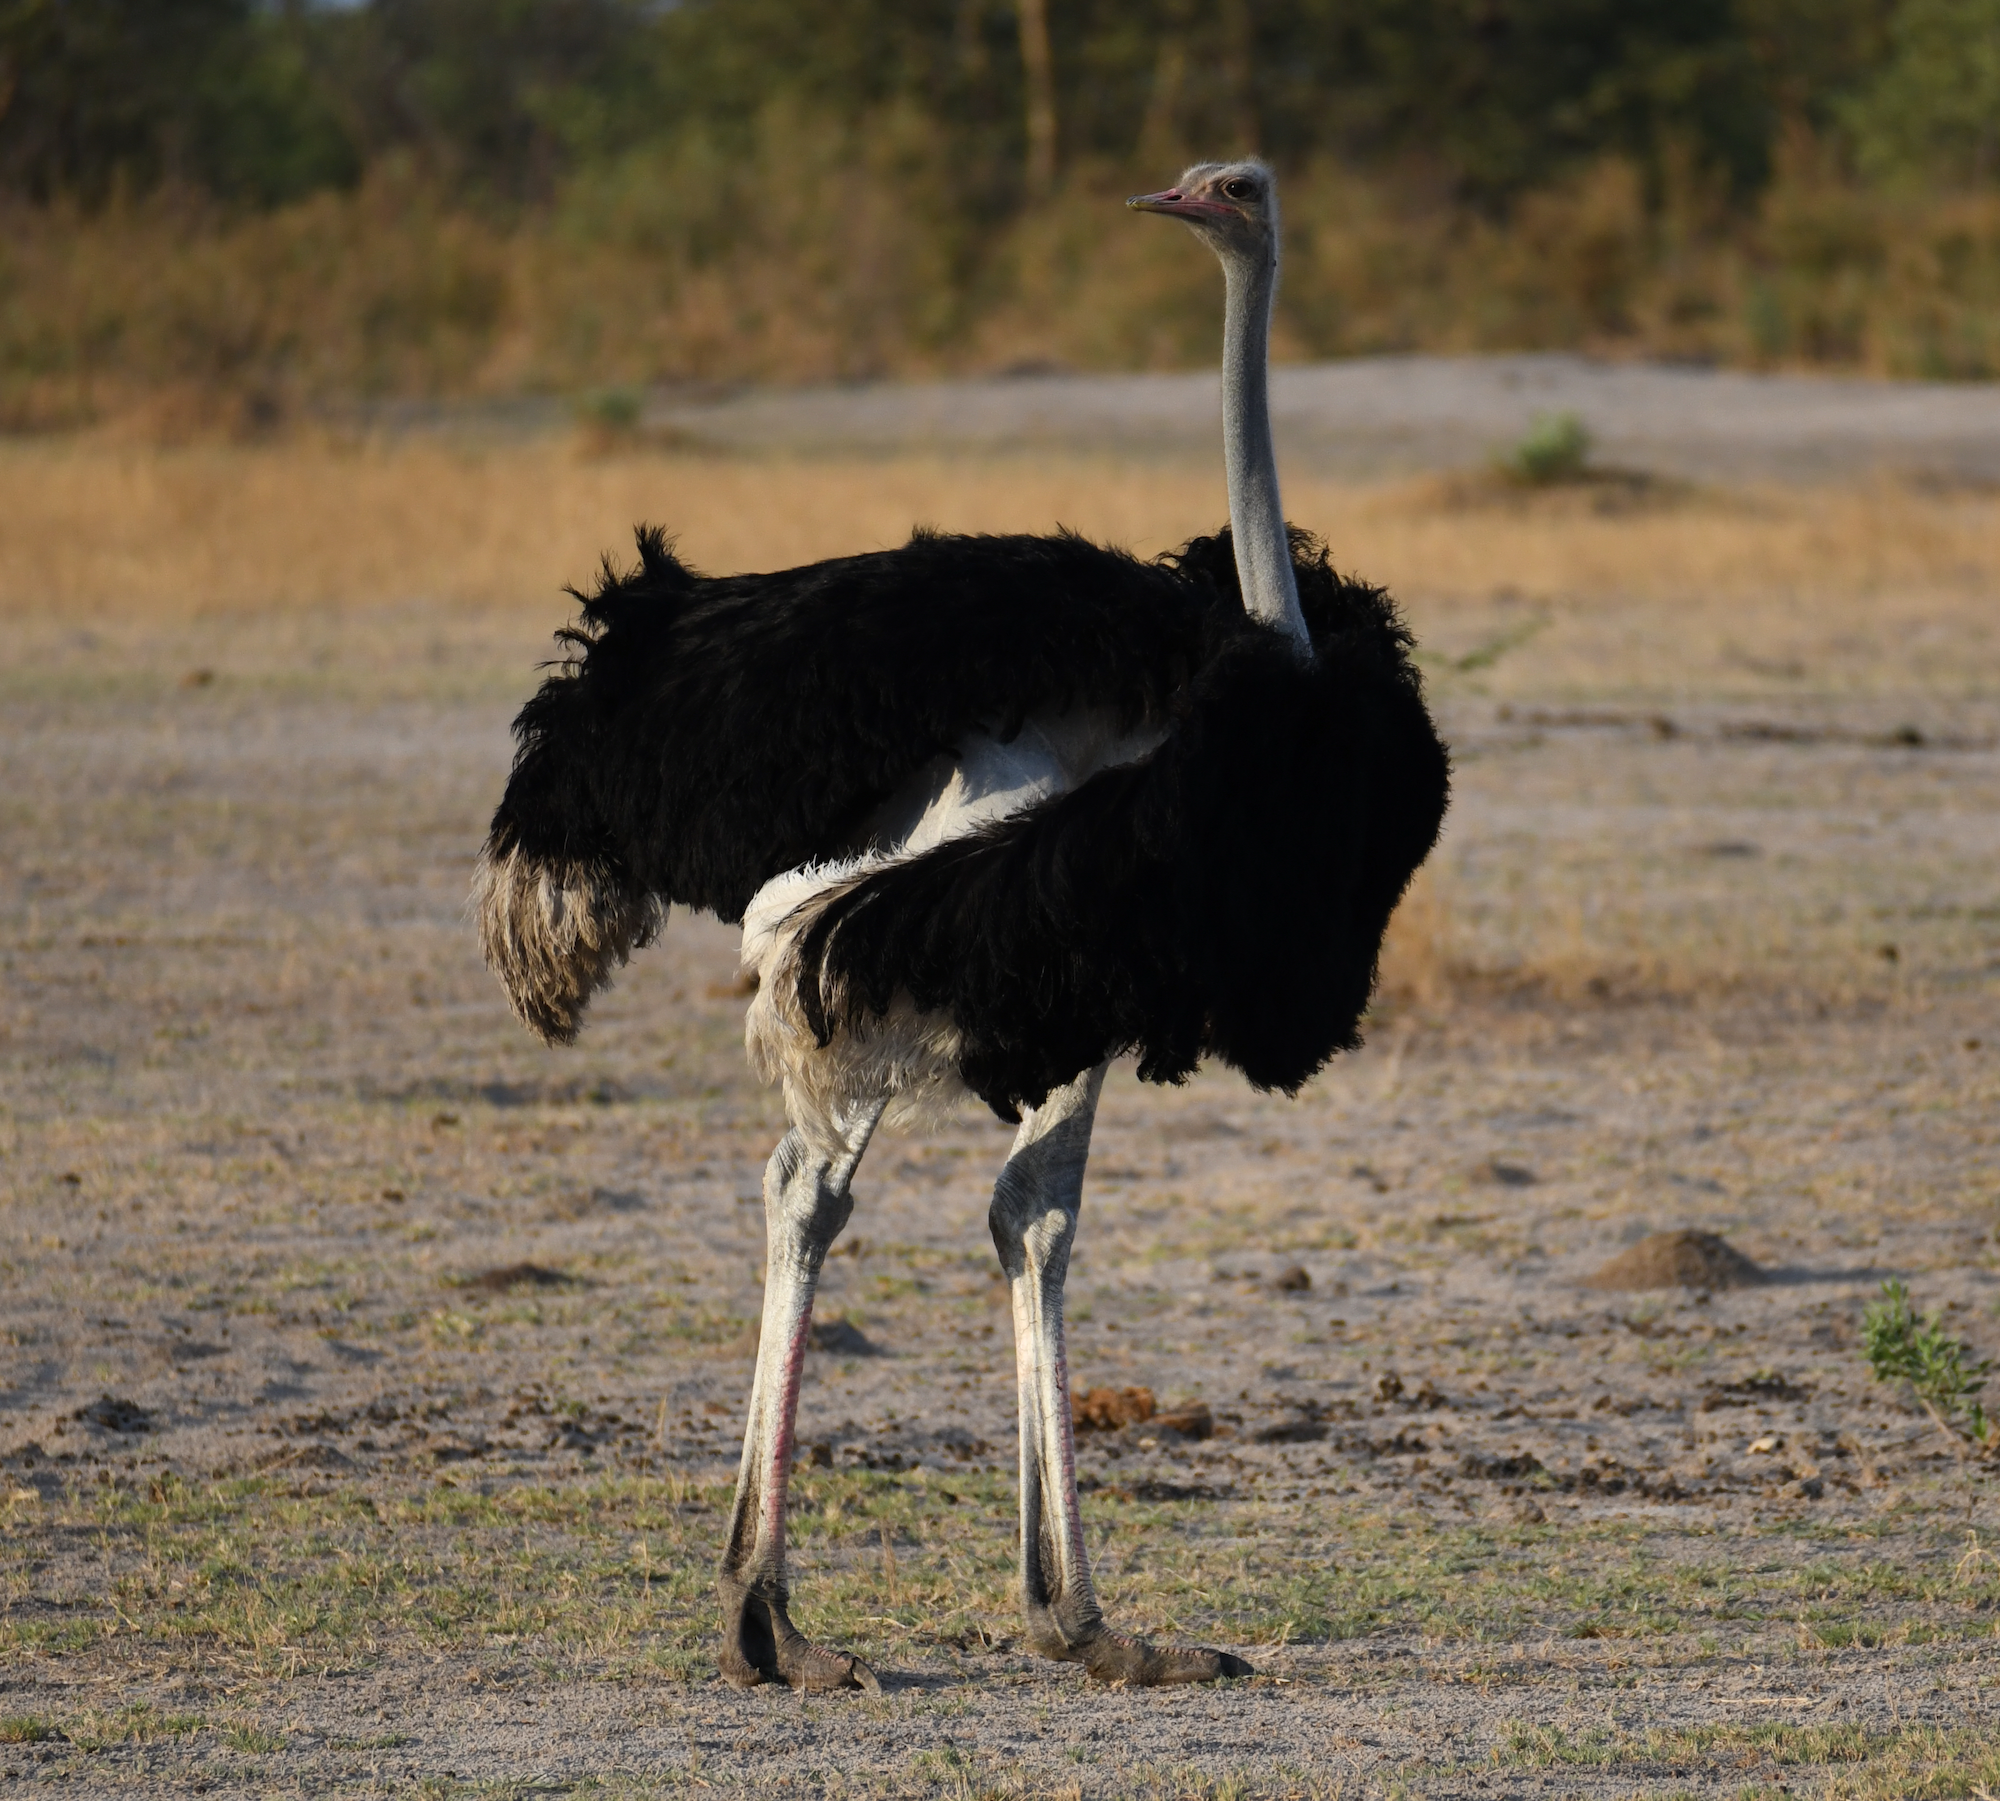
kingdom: Animalia
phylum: Chordata
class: Aves
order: Struthioniformes
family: Struthionidae
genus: Struthio
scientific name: Struthio camelus
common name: Common ostrich
